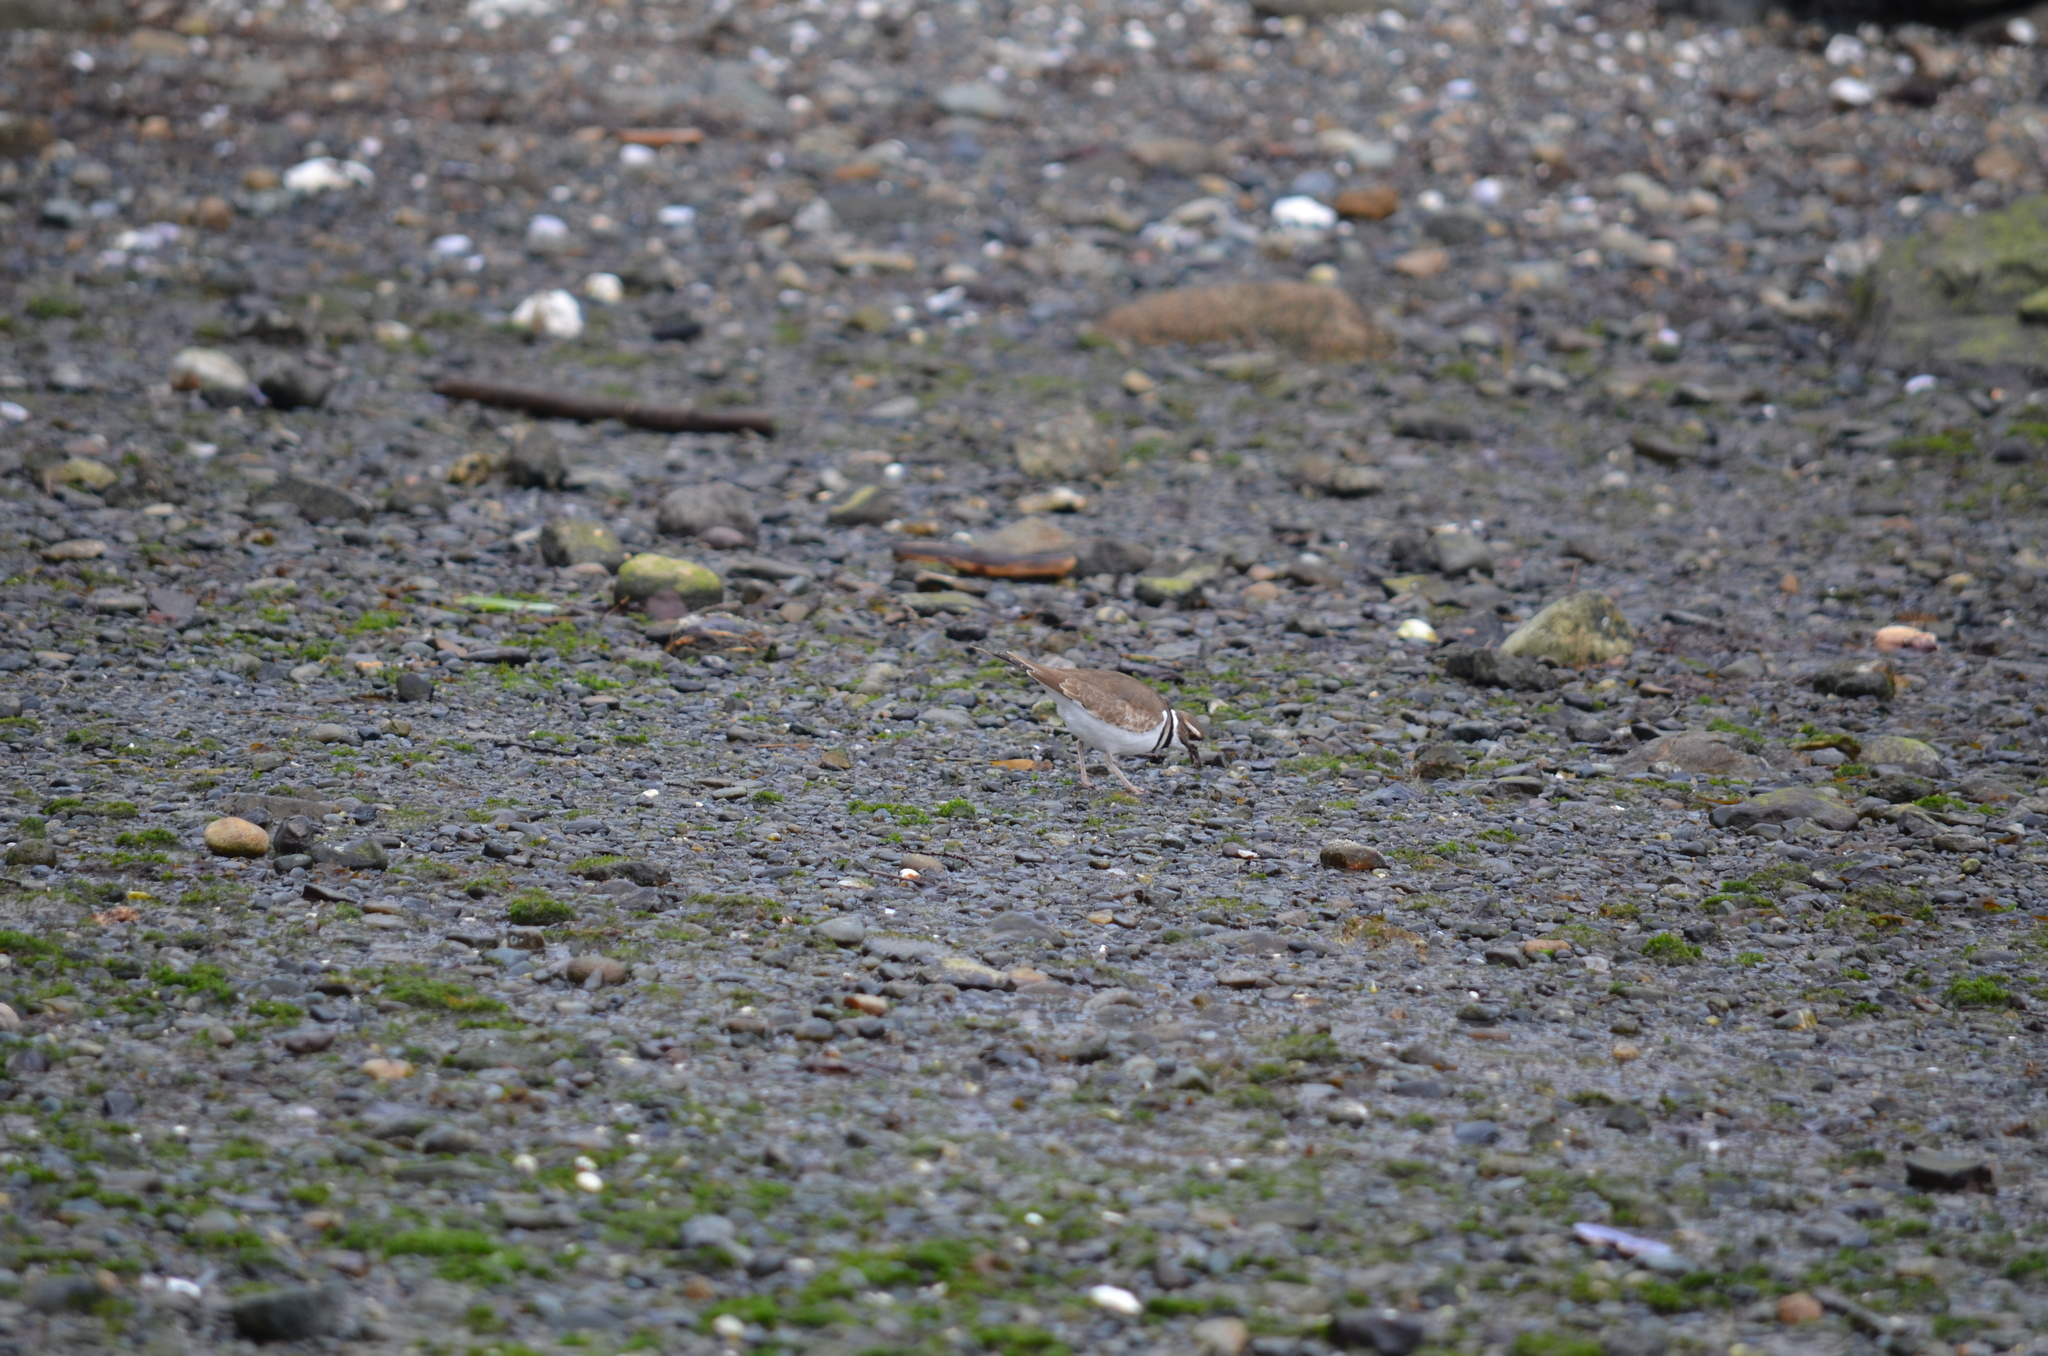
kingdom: Animalia
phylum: Chordata
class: Aves
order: Charadriiformes
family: Charadriidae
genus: Charadrius
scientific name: Charadrius vociferus
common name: Killdeer
